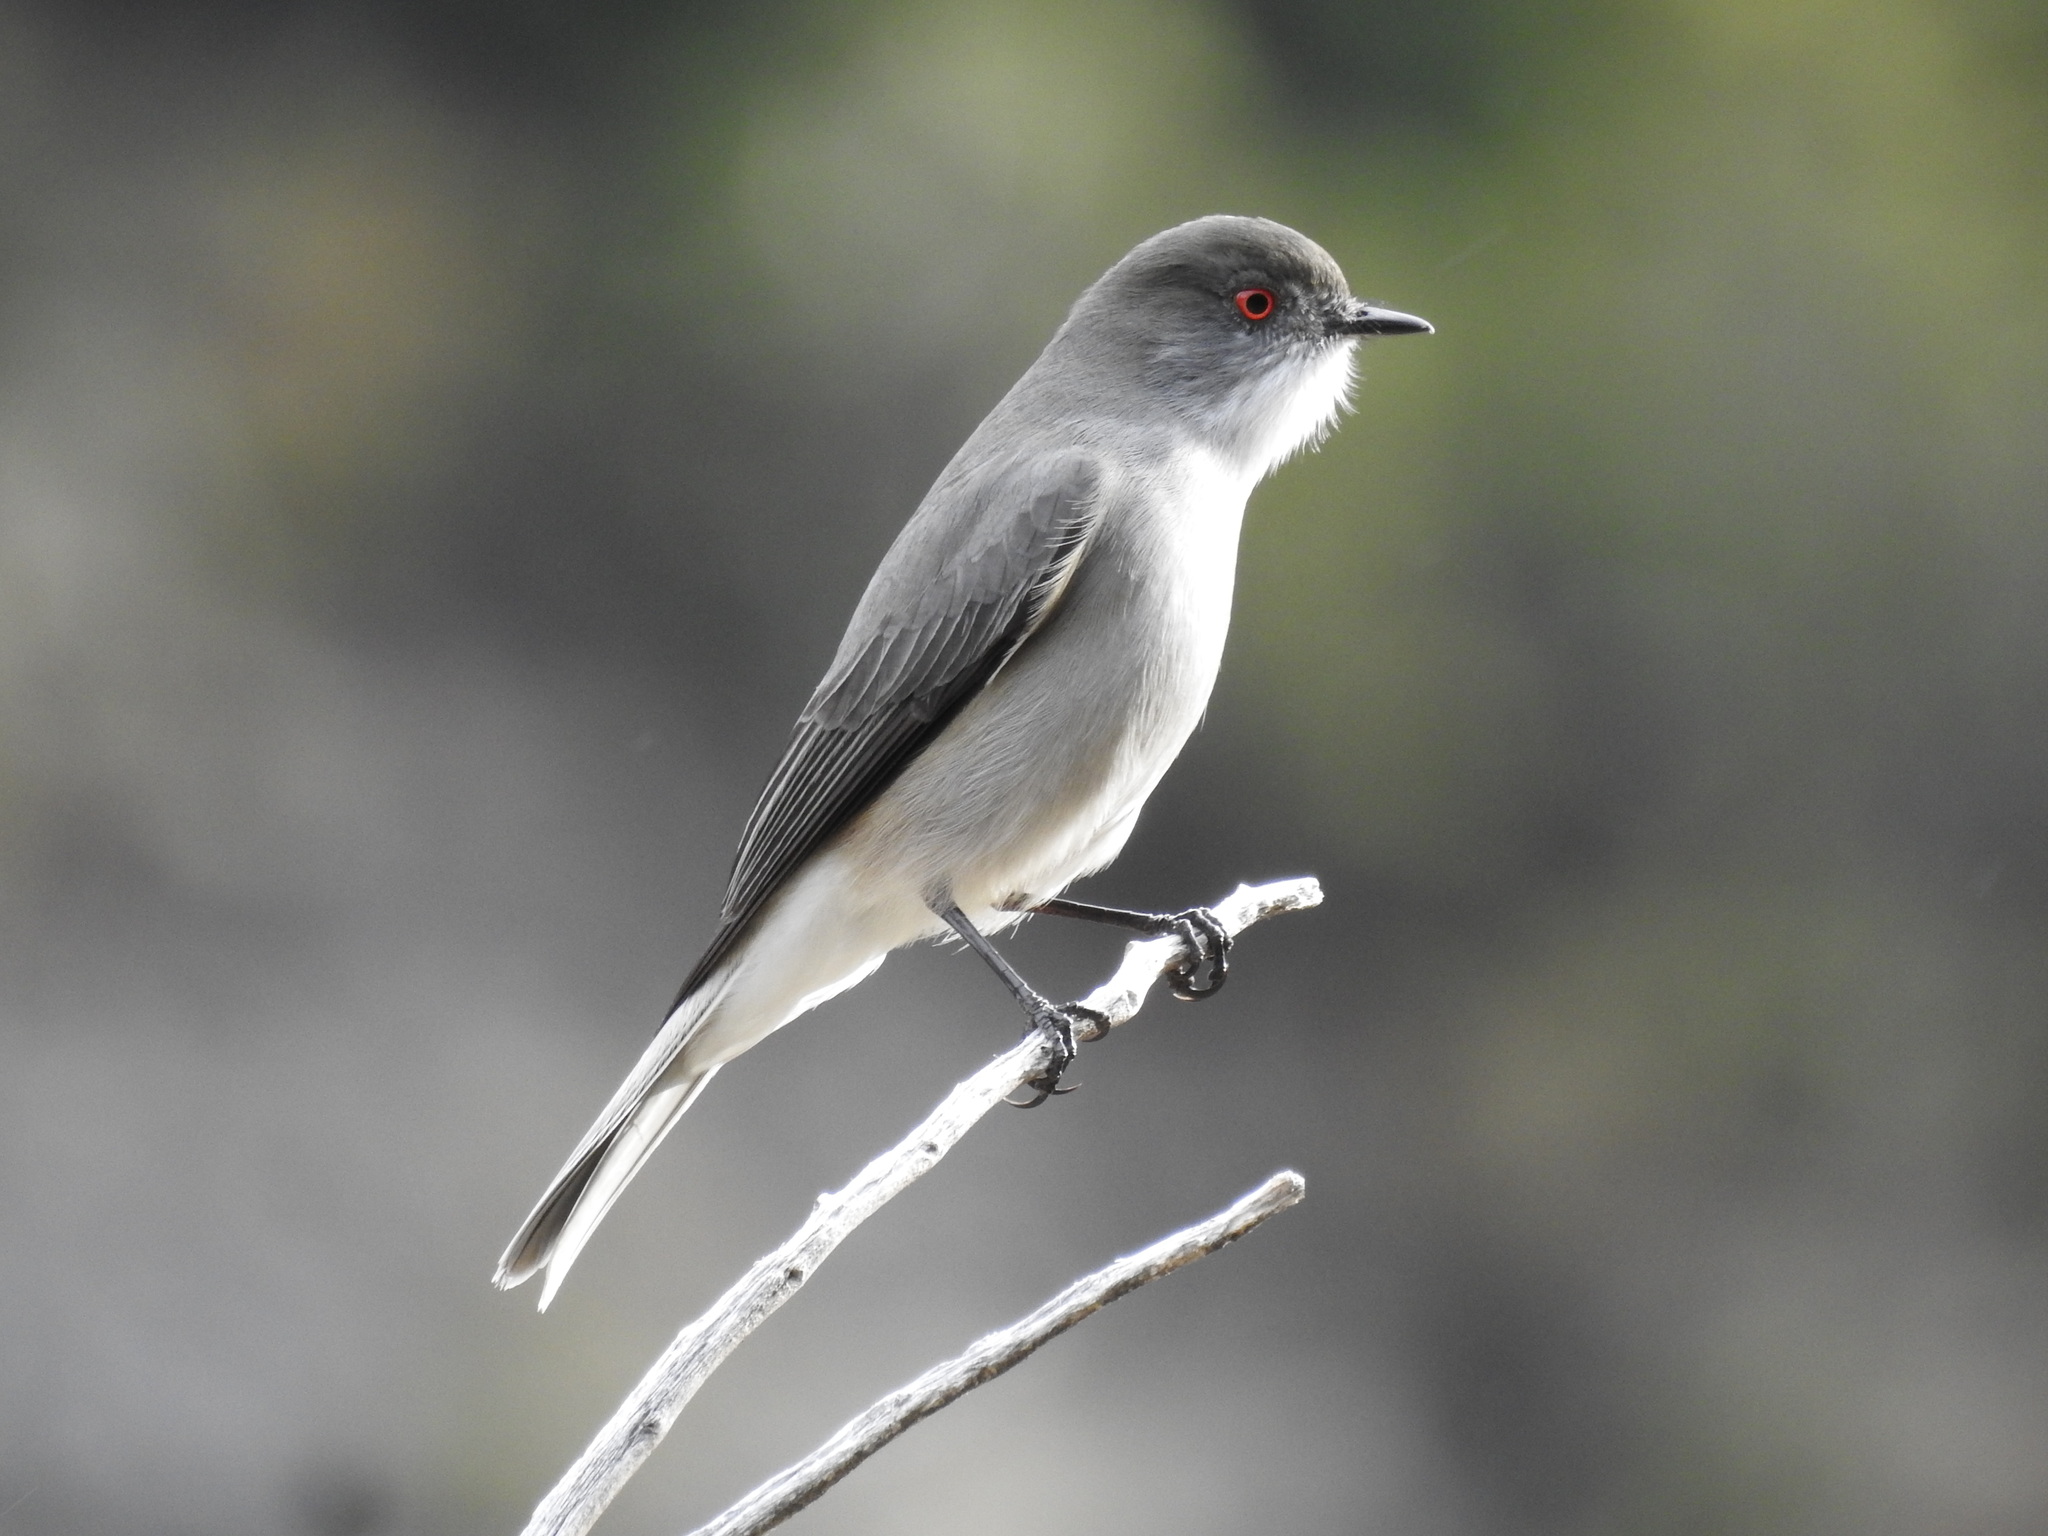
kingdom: Animalia
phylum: Chordata
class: Aves
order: Passeriformes
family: Tyrannidae
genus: Xolmis
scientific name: Xolmis pyrope
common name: Fire-eyed diucon
